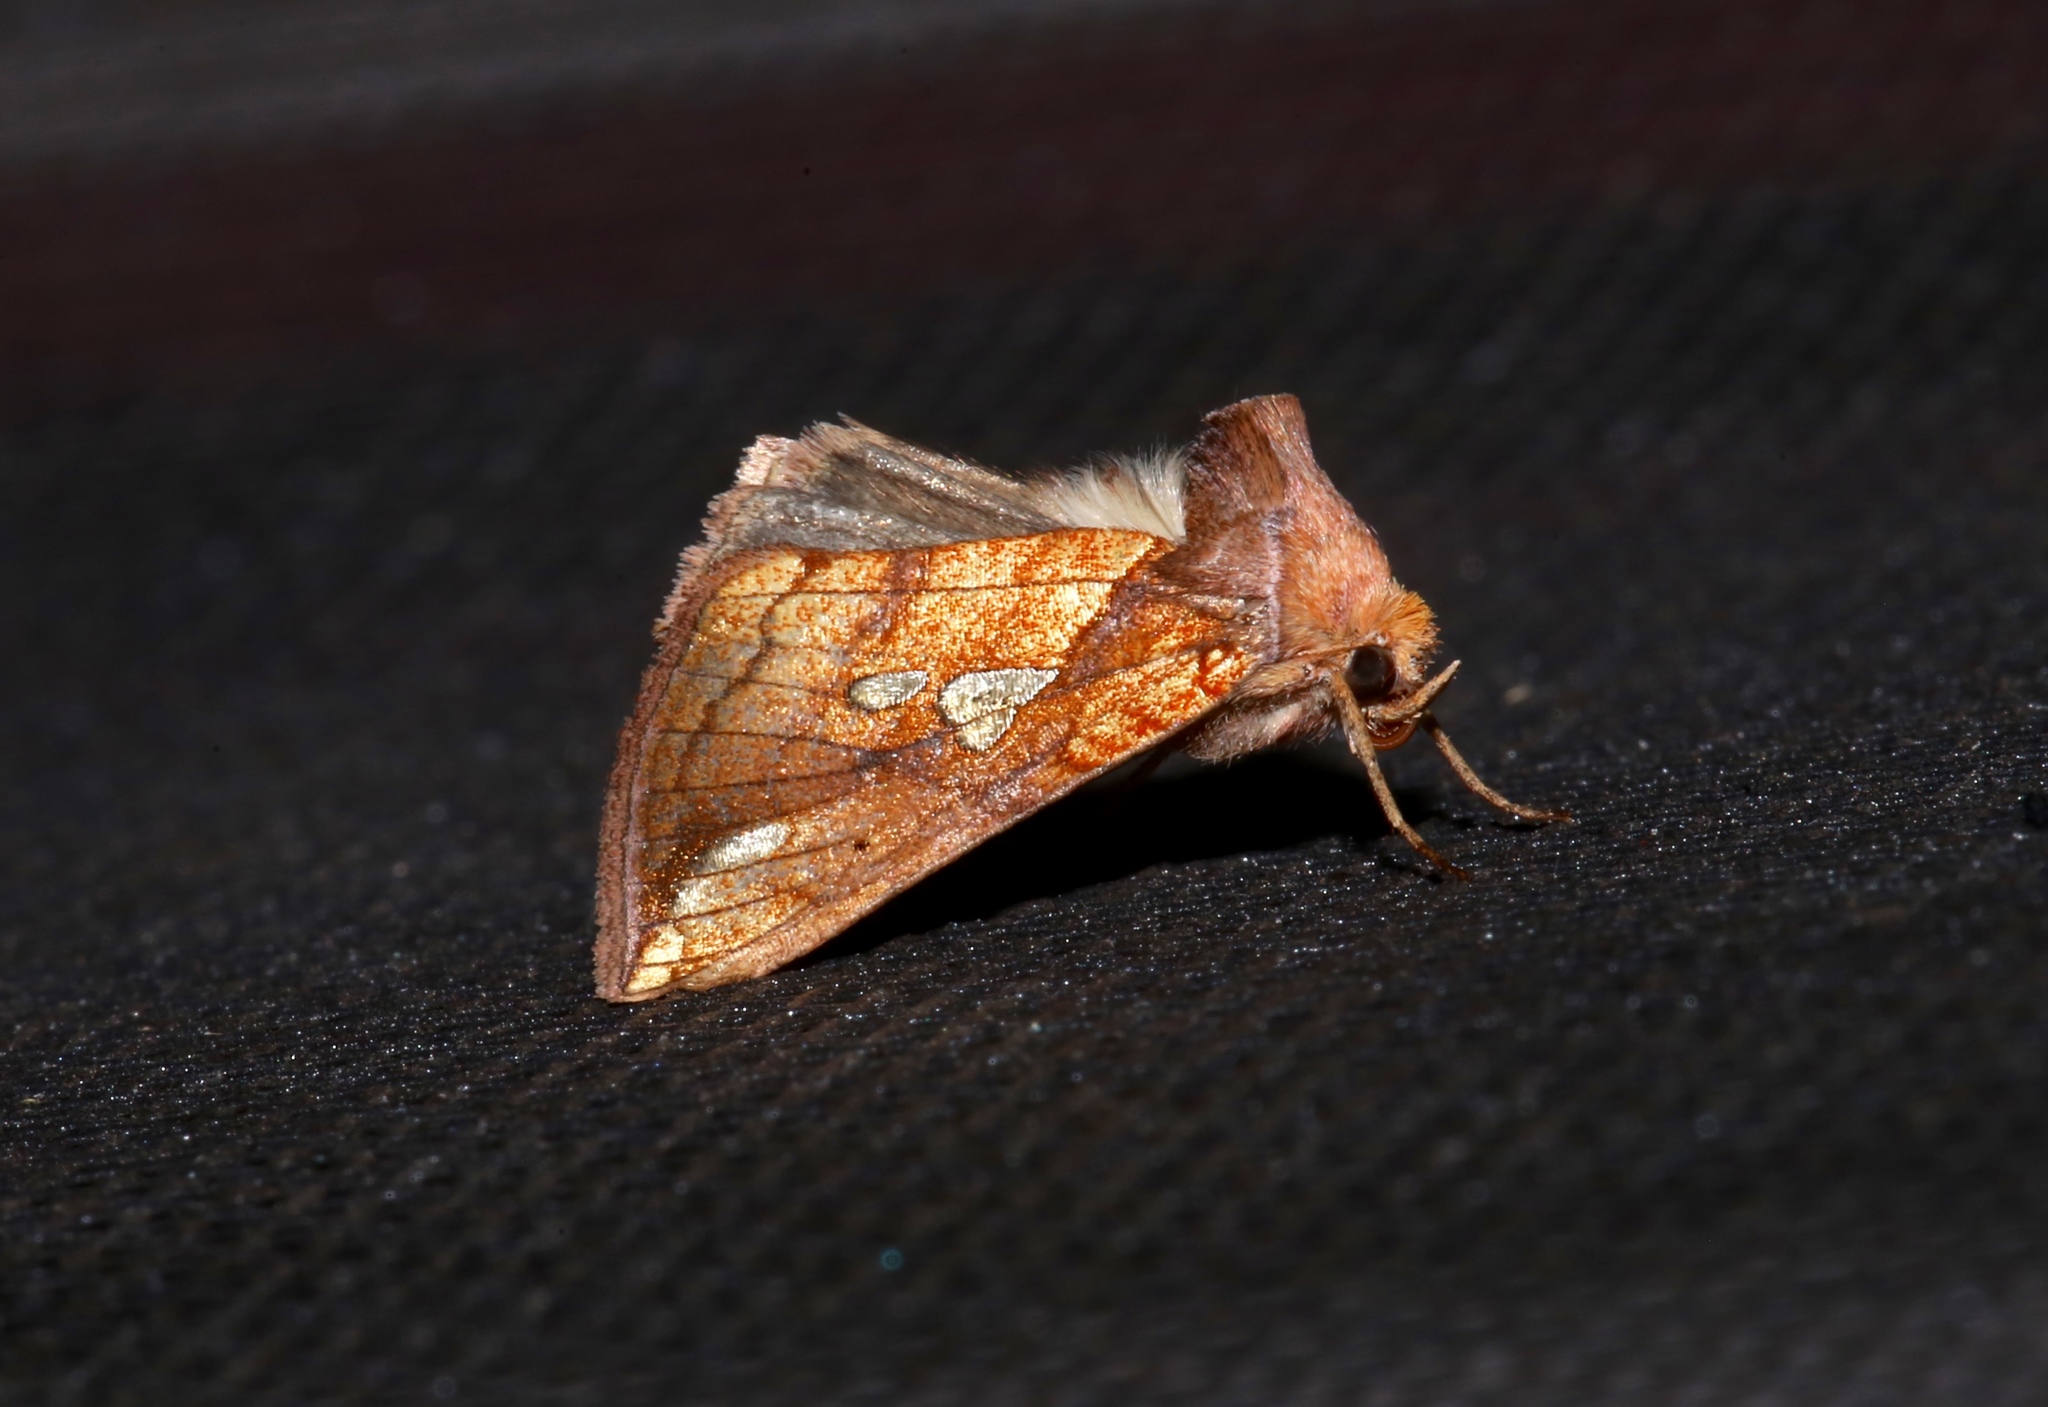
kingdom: Animalia
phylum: Arthropoda
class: Insecta
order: Lepidoptera
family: Noctuidae
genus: Plusia
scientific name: Plusia putnami
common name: Lempke's gold spot
